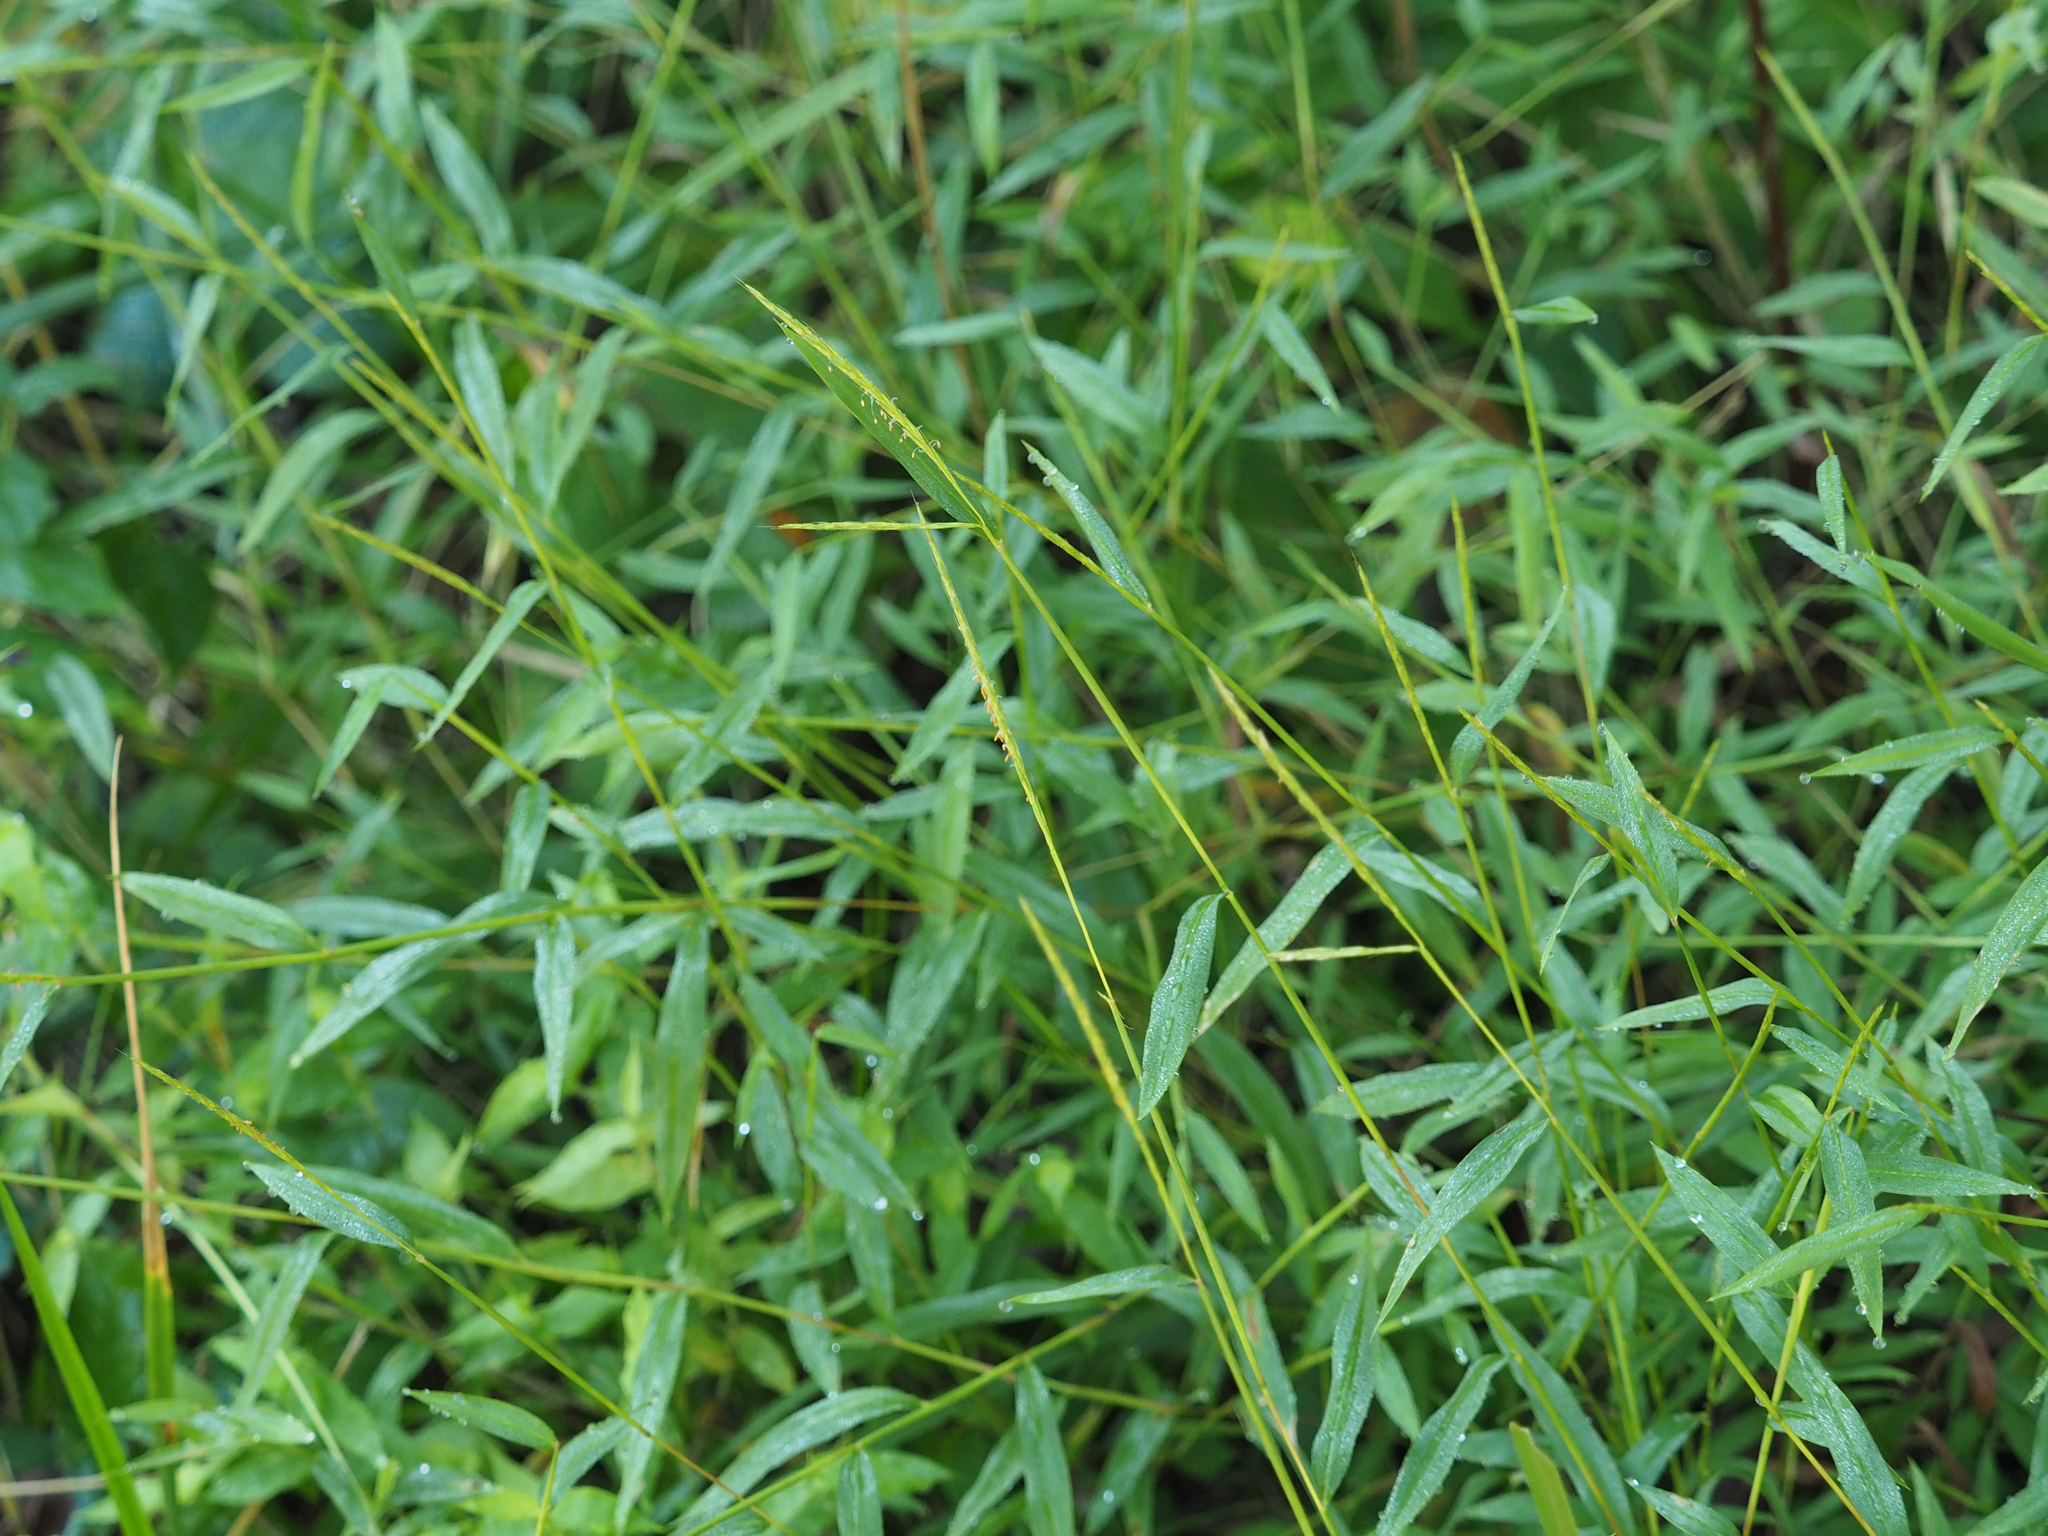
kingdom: Plantae
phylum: Tracheophyta
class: Liliopsida
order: Poales
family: Poaceae
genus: Microstegium
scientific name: Microstegium vimineum
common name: Japanese stiltgrass
